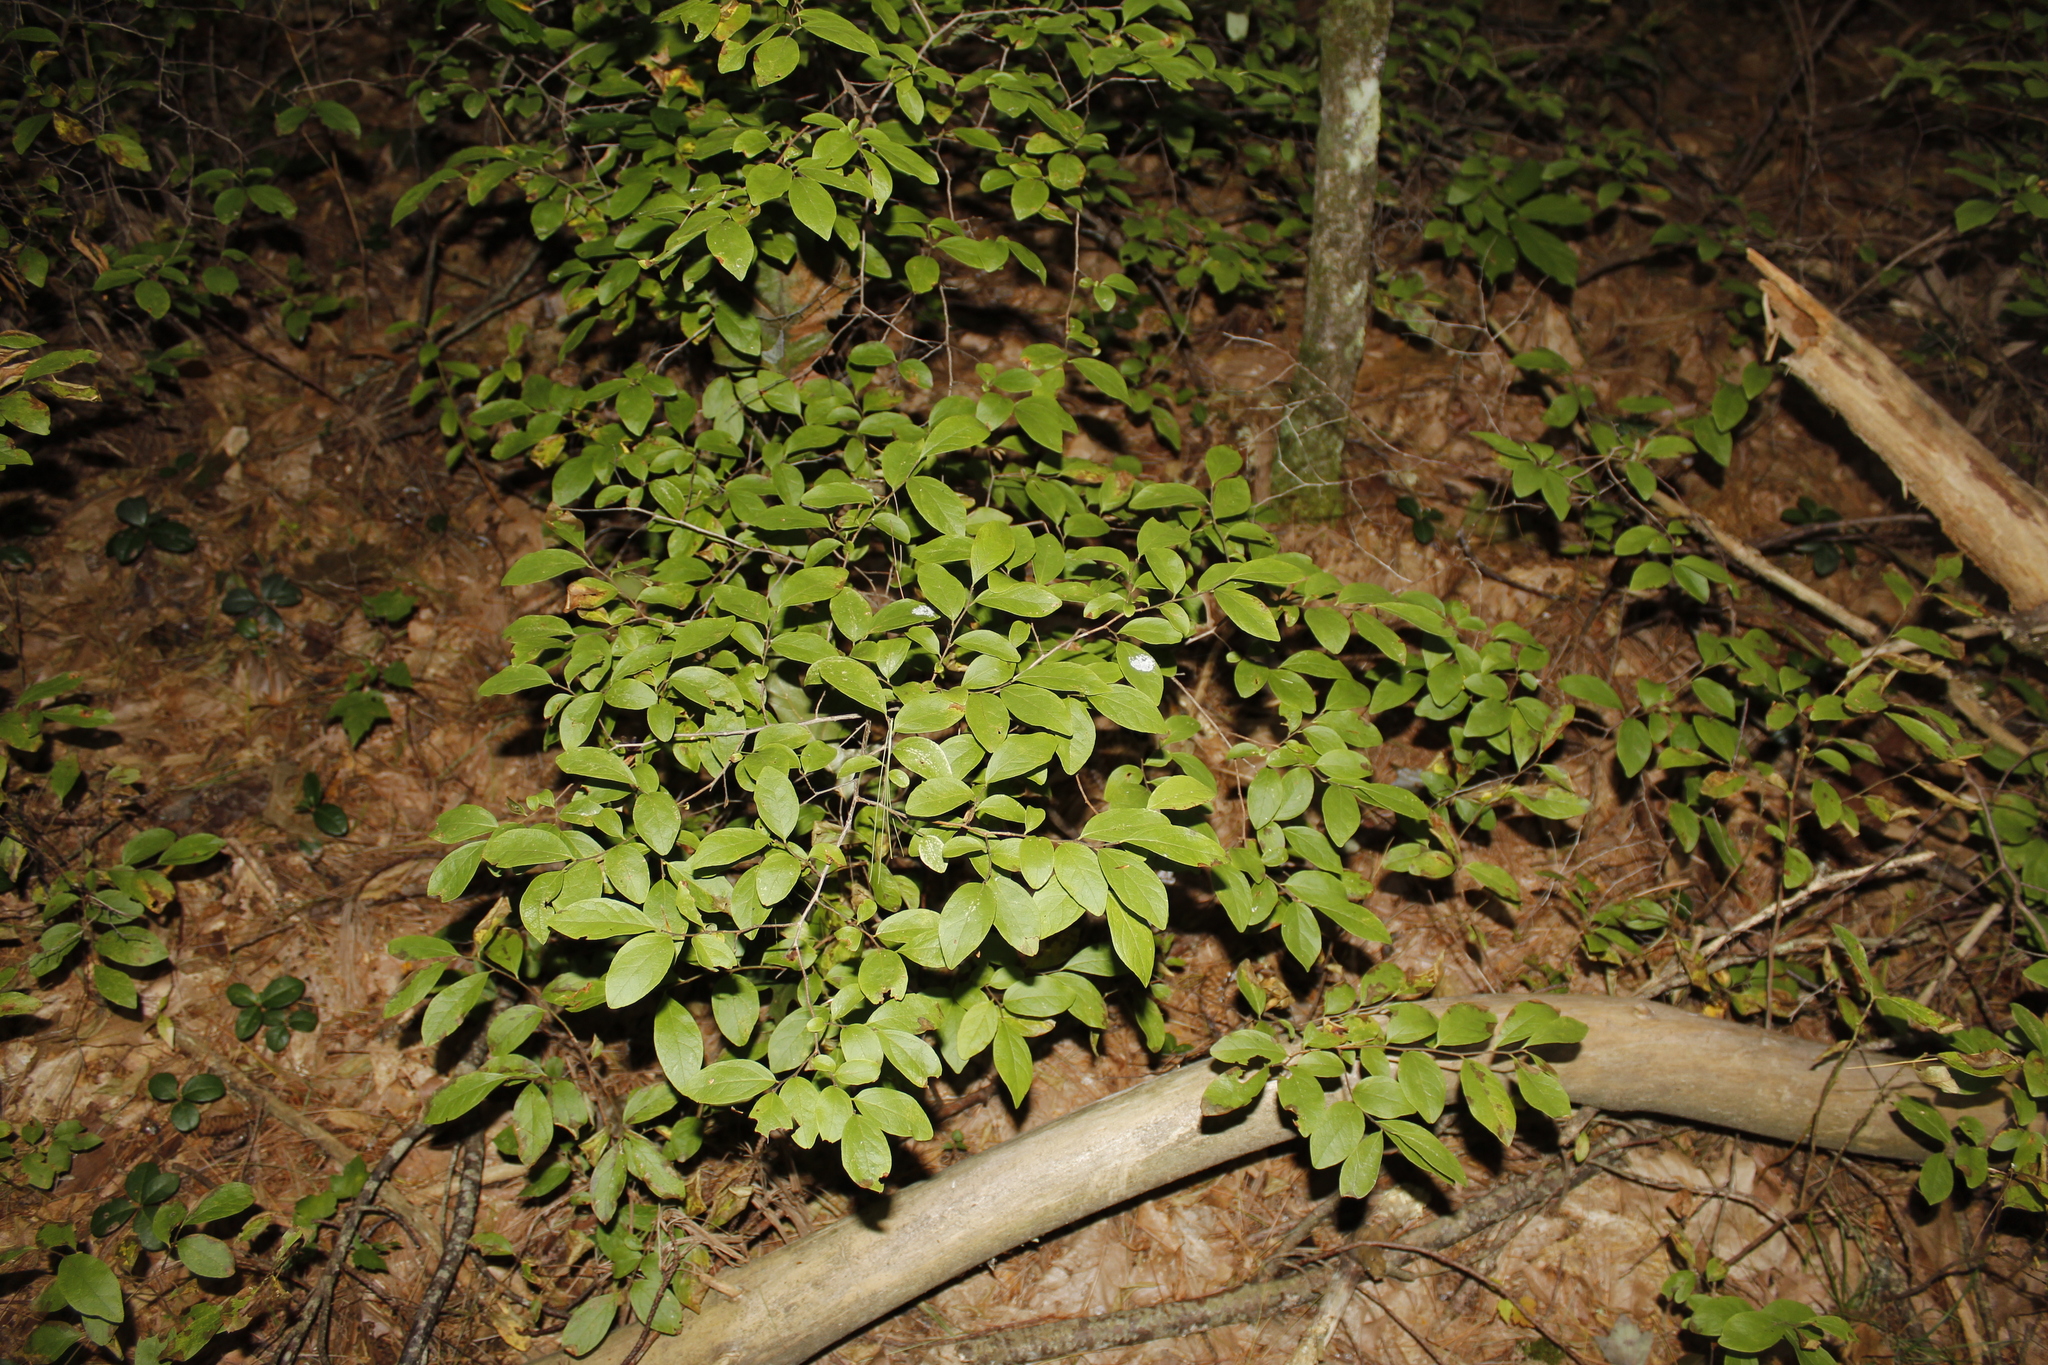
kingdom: Plantae
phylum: Tracheophyta
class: Magnoliopsida
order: Ericales
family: Ericaceae
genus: Gaylussacia
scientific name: Gaylussacia baccata
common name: Black huckleberry
